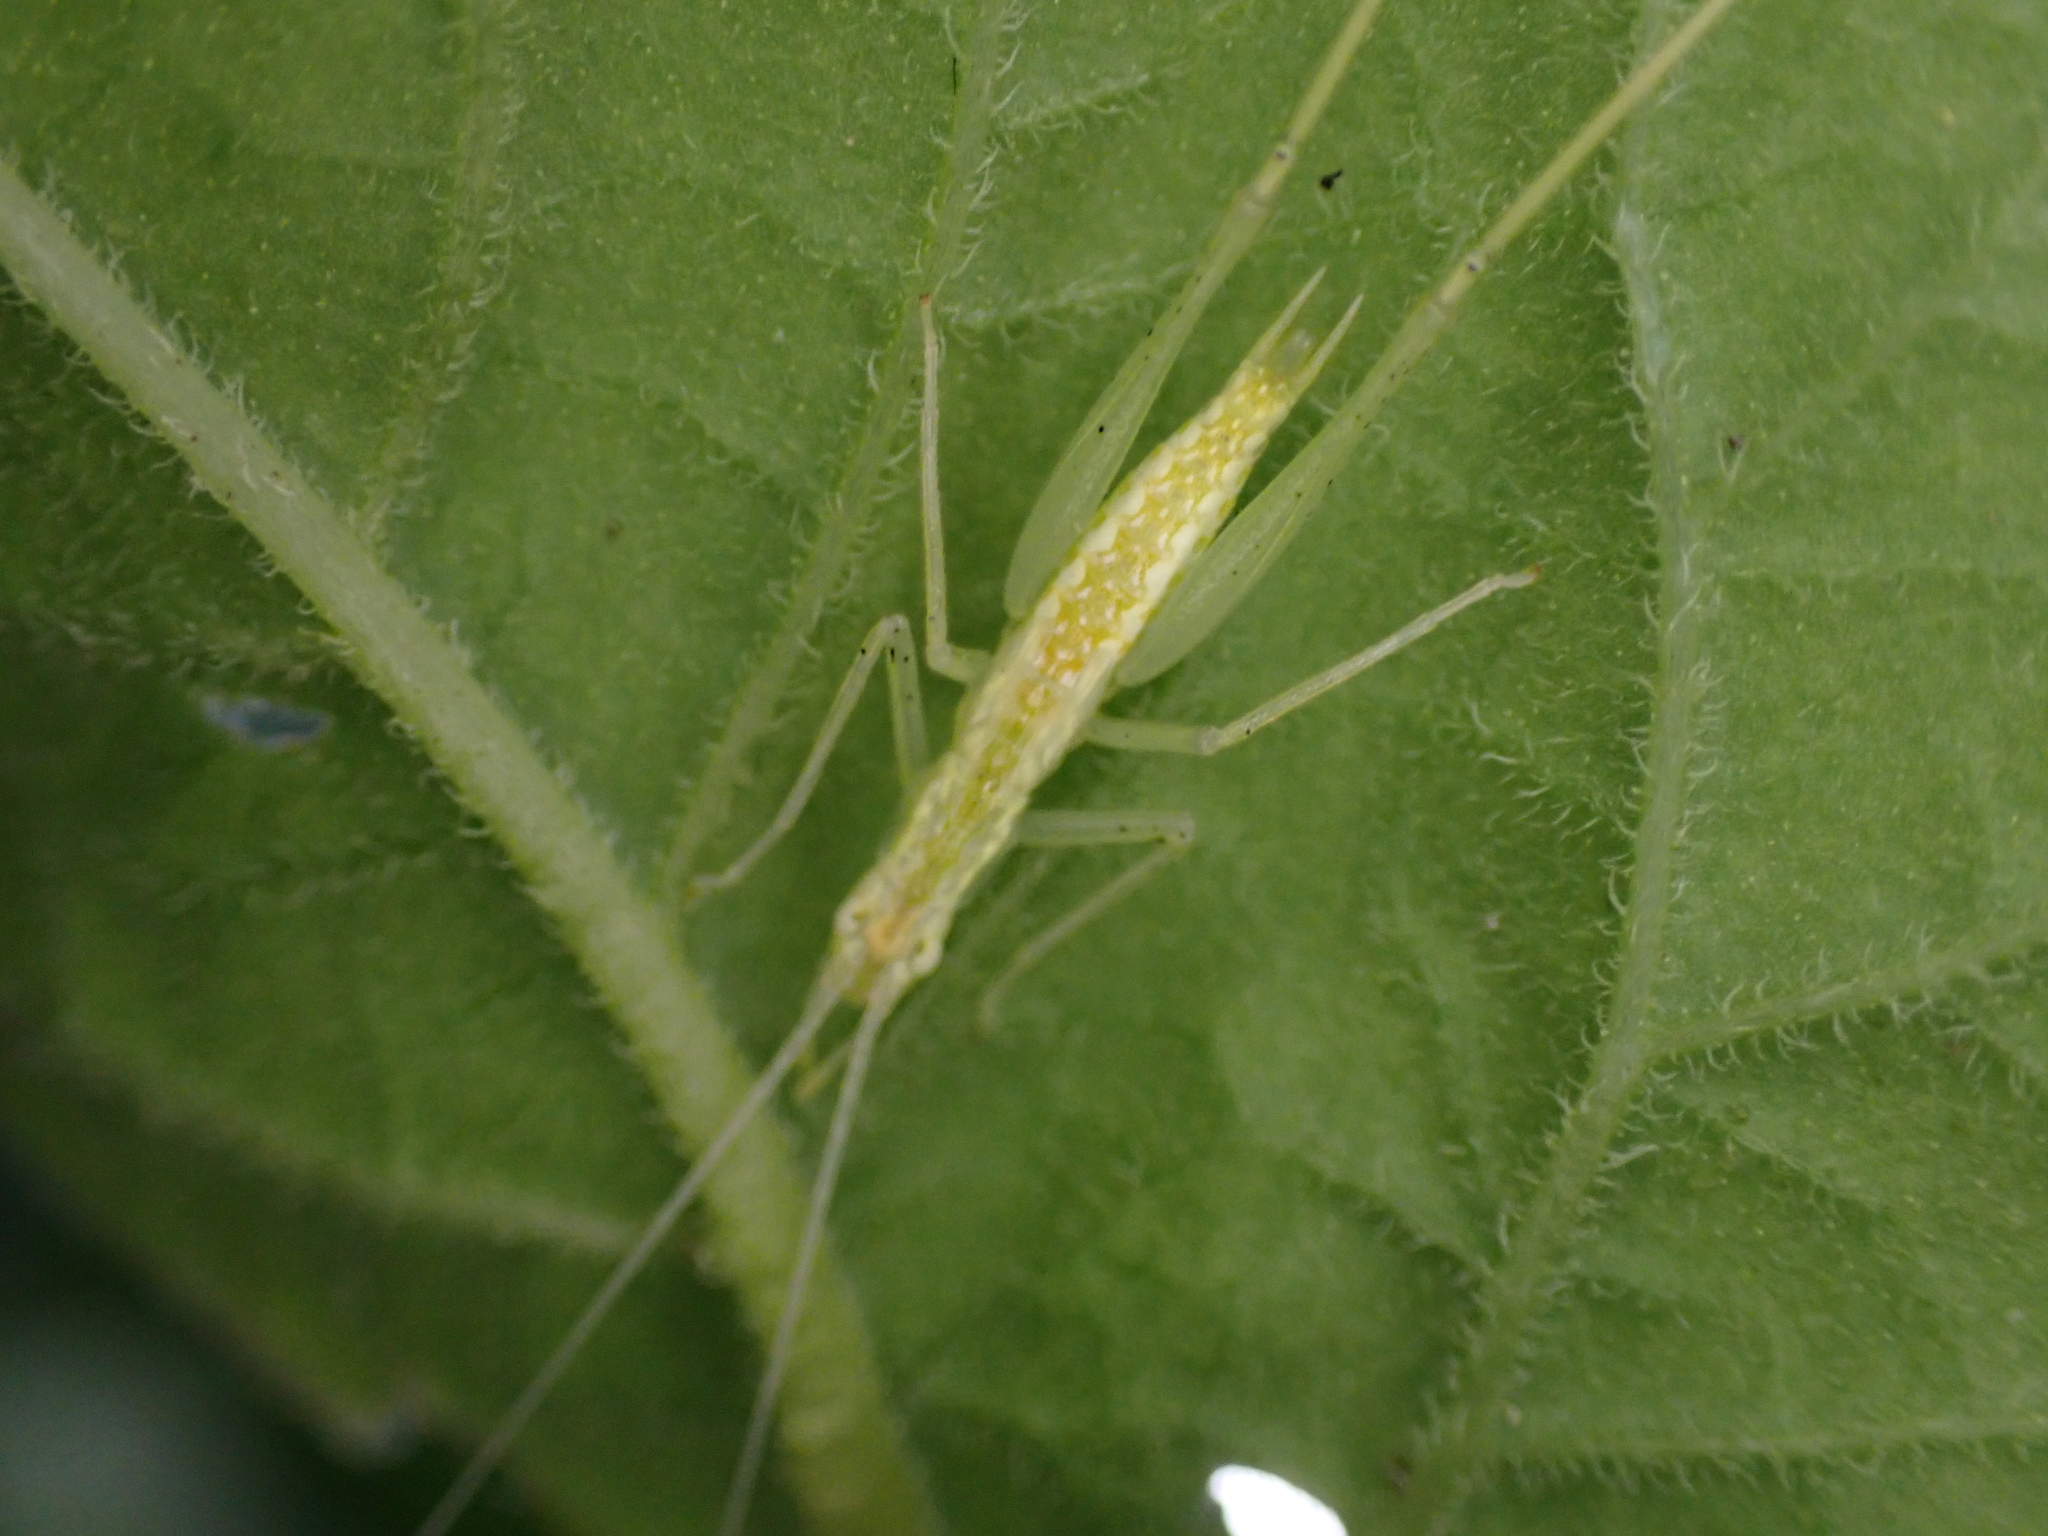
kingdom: Animalia
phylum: Arthropoda
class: Insecta
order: Orthoptera
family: Gryllidae
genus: Oecanthus
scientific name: Oecanthus
